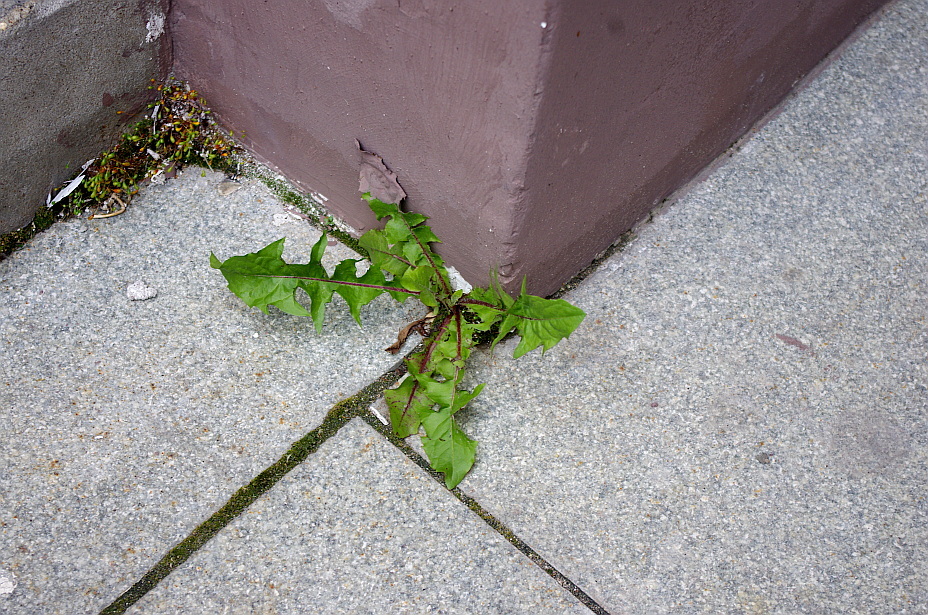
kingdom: Plantae
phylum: Tracheophyta
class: Magnoliopsida
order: Asterales
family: Asteraceae
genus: Taraxacum
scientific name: Taraxacum officinale
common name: Common dandelion
